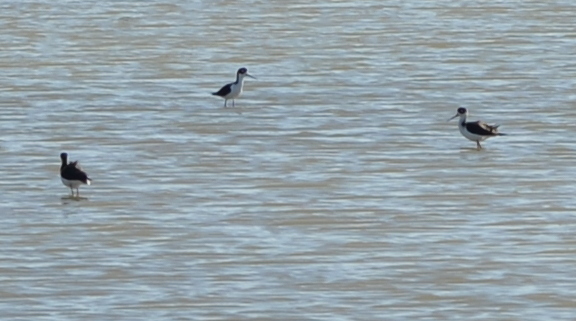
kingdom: Animalia
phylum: Chordata
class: Aves
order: Charadriiformes
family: Recurvirostridae
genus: Himantopus
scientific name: Himantopus mexicanus
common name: Black-necked stilt
